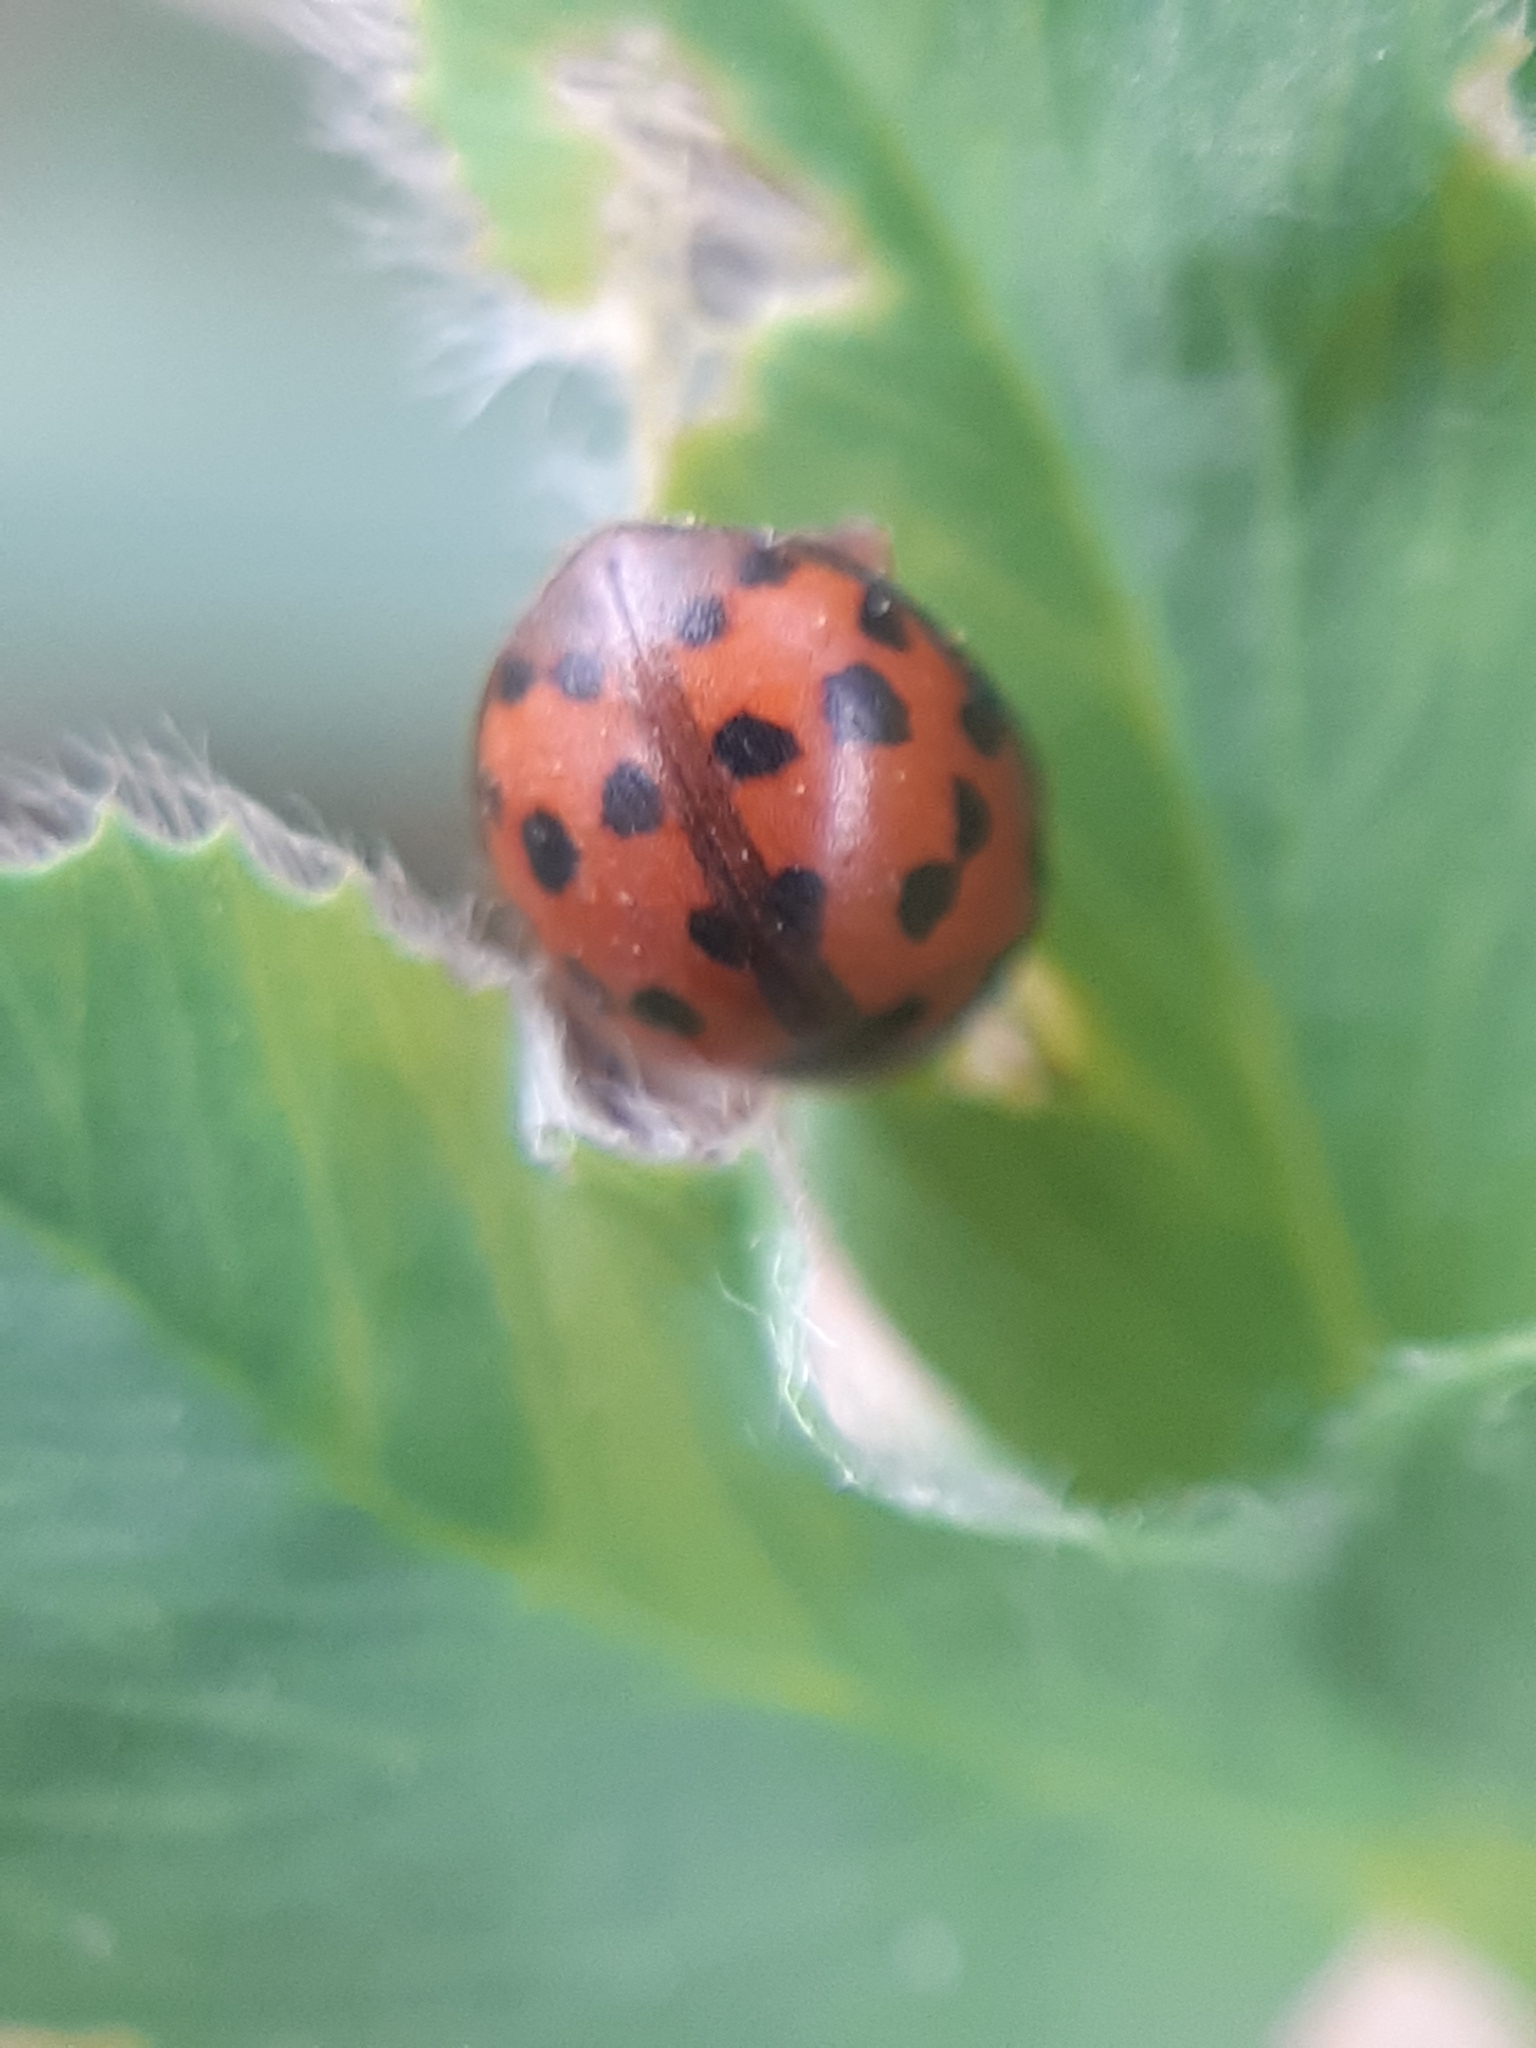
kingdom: Animalia
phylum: Arthropoda
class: Insecta
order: Coleoptera
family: Coccinellidae
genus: Subcoccinella
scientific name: Subcoccinella vigintiquatuorpunctata
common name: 24-spot ladybird
